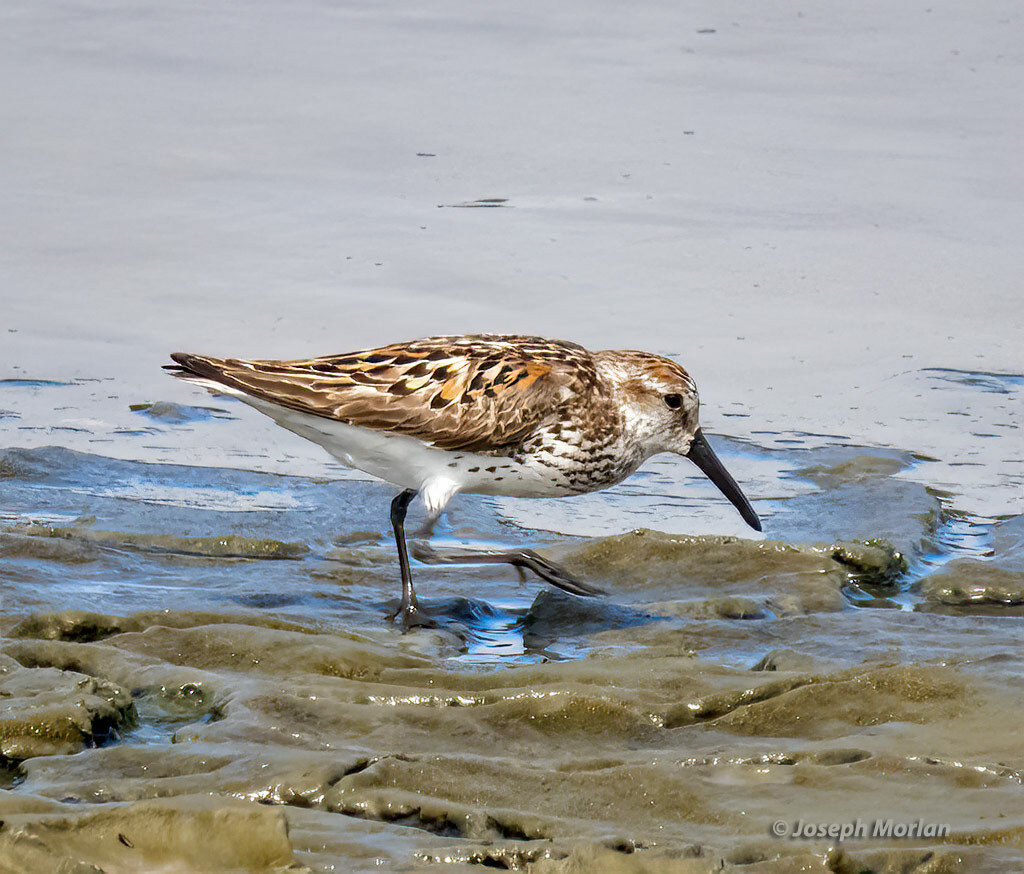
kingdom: Animalia
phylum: Chordata
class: Aves
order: Charadriiformes
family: Scolopacidae
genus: Calidris
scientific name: Calidris mauri
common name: Western sandpiper
